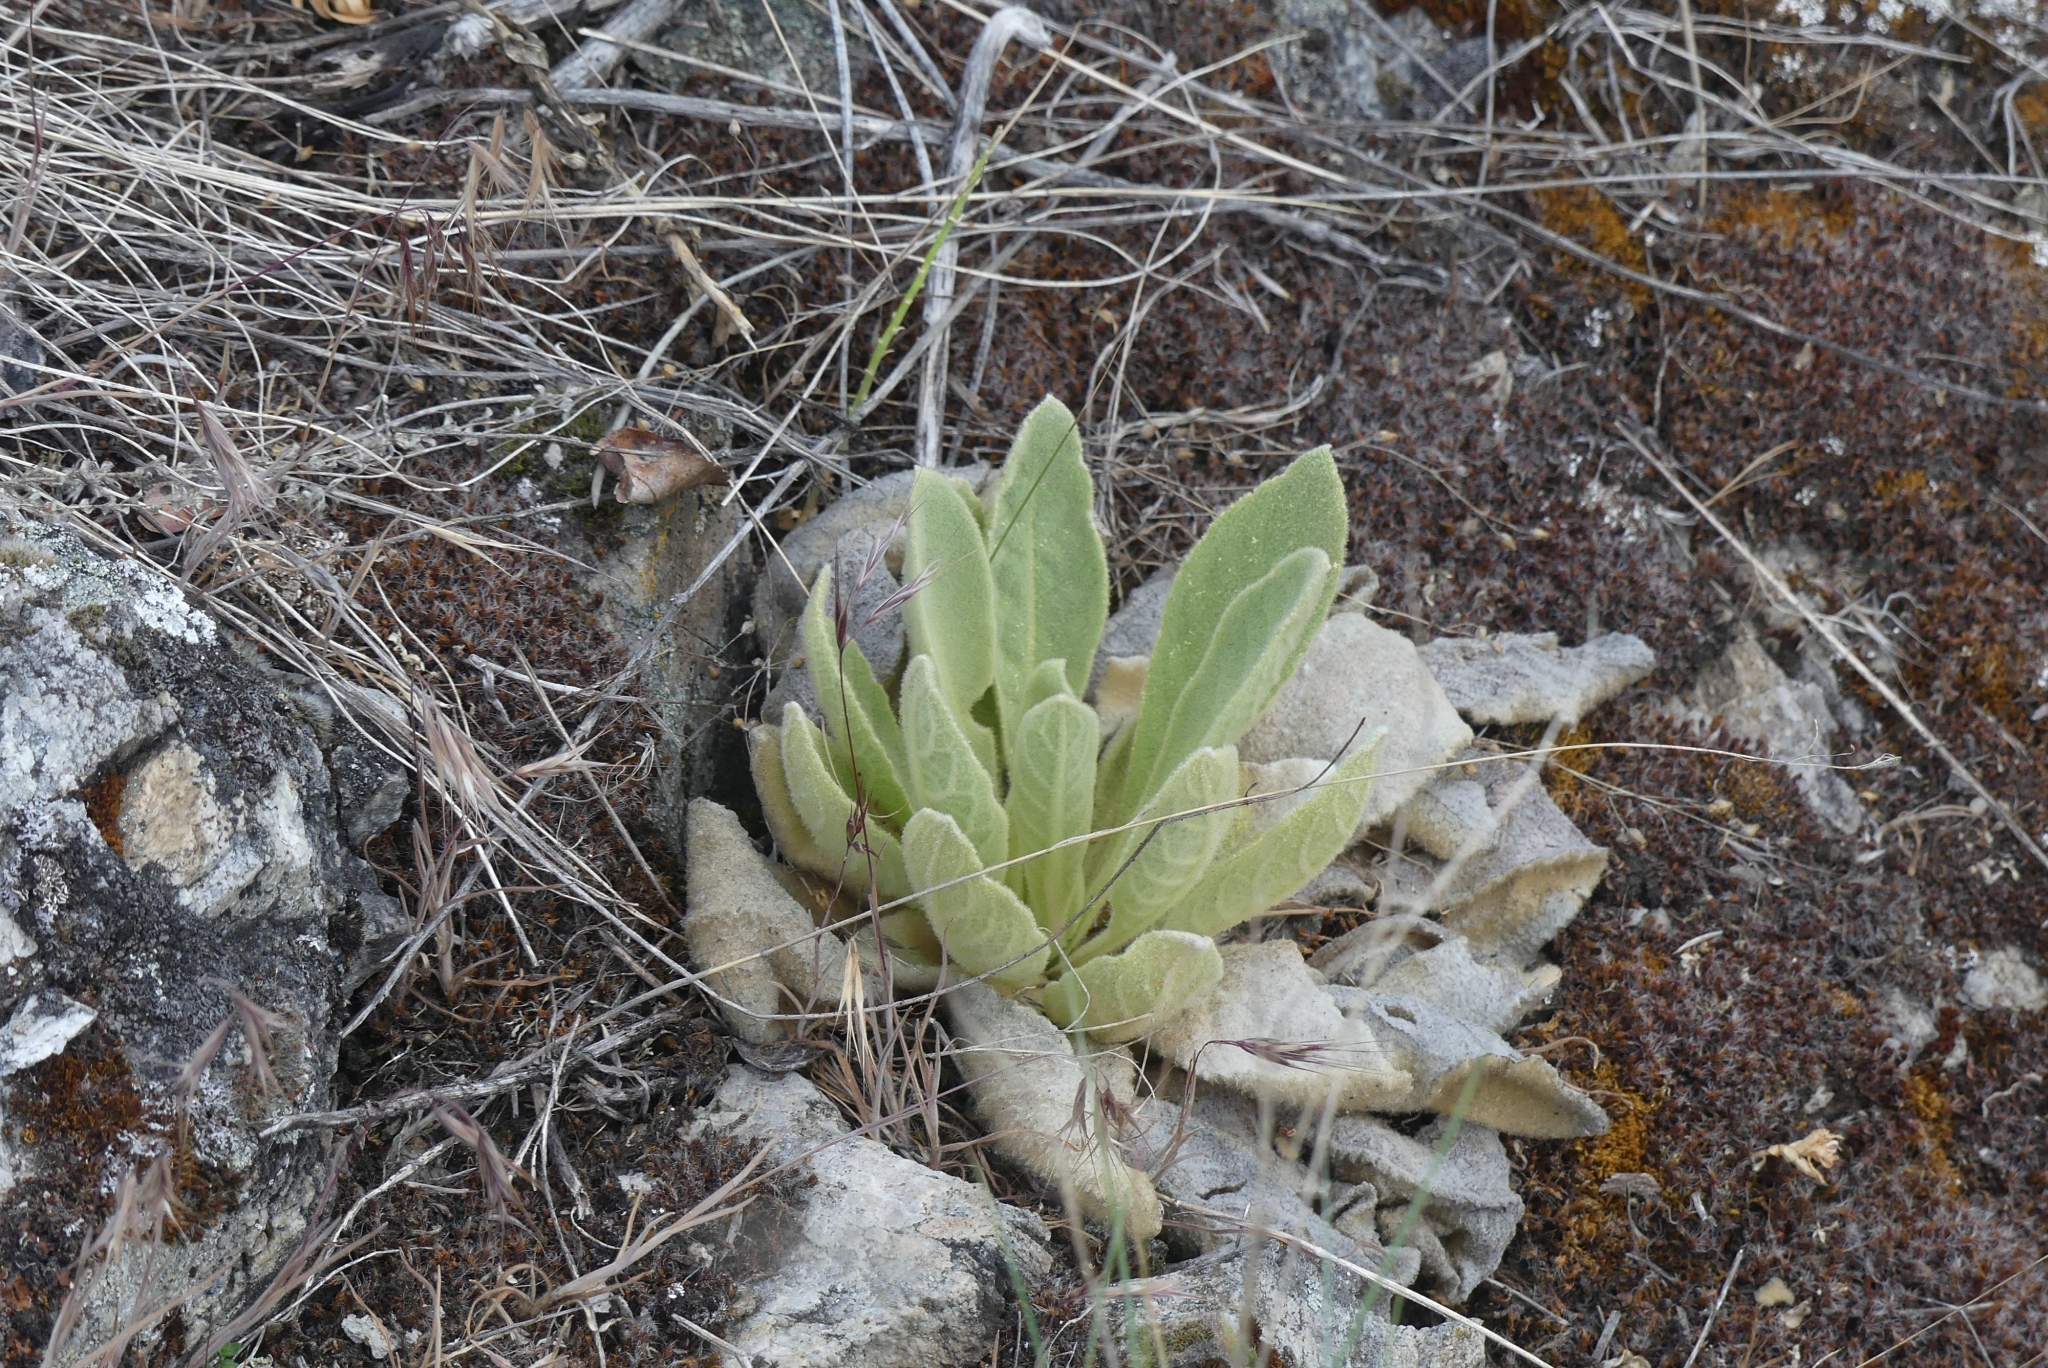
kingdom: Plantae
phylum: Tracheophyta
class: Magnoliopsida
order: Lamiales
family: Scrophulariaceae
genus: Verbascum
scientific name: Verbascum thapsus
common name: Common mullein
